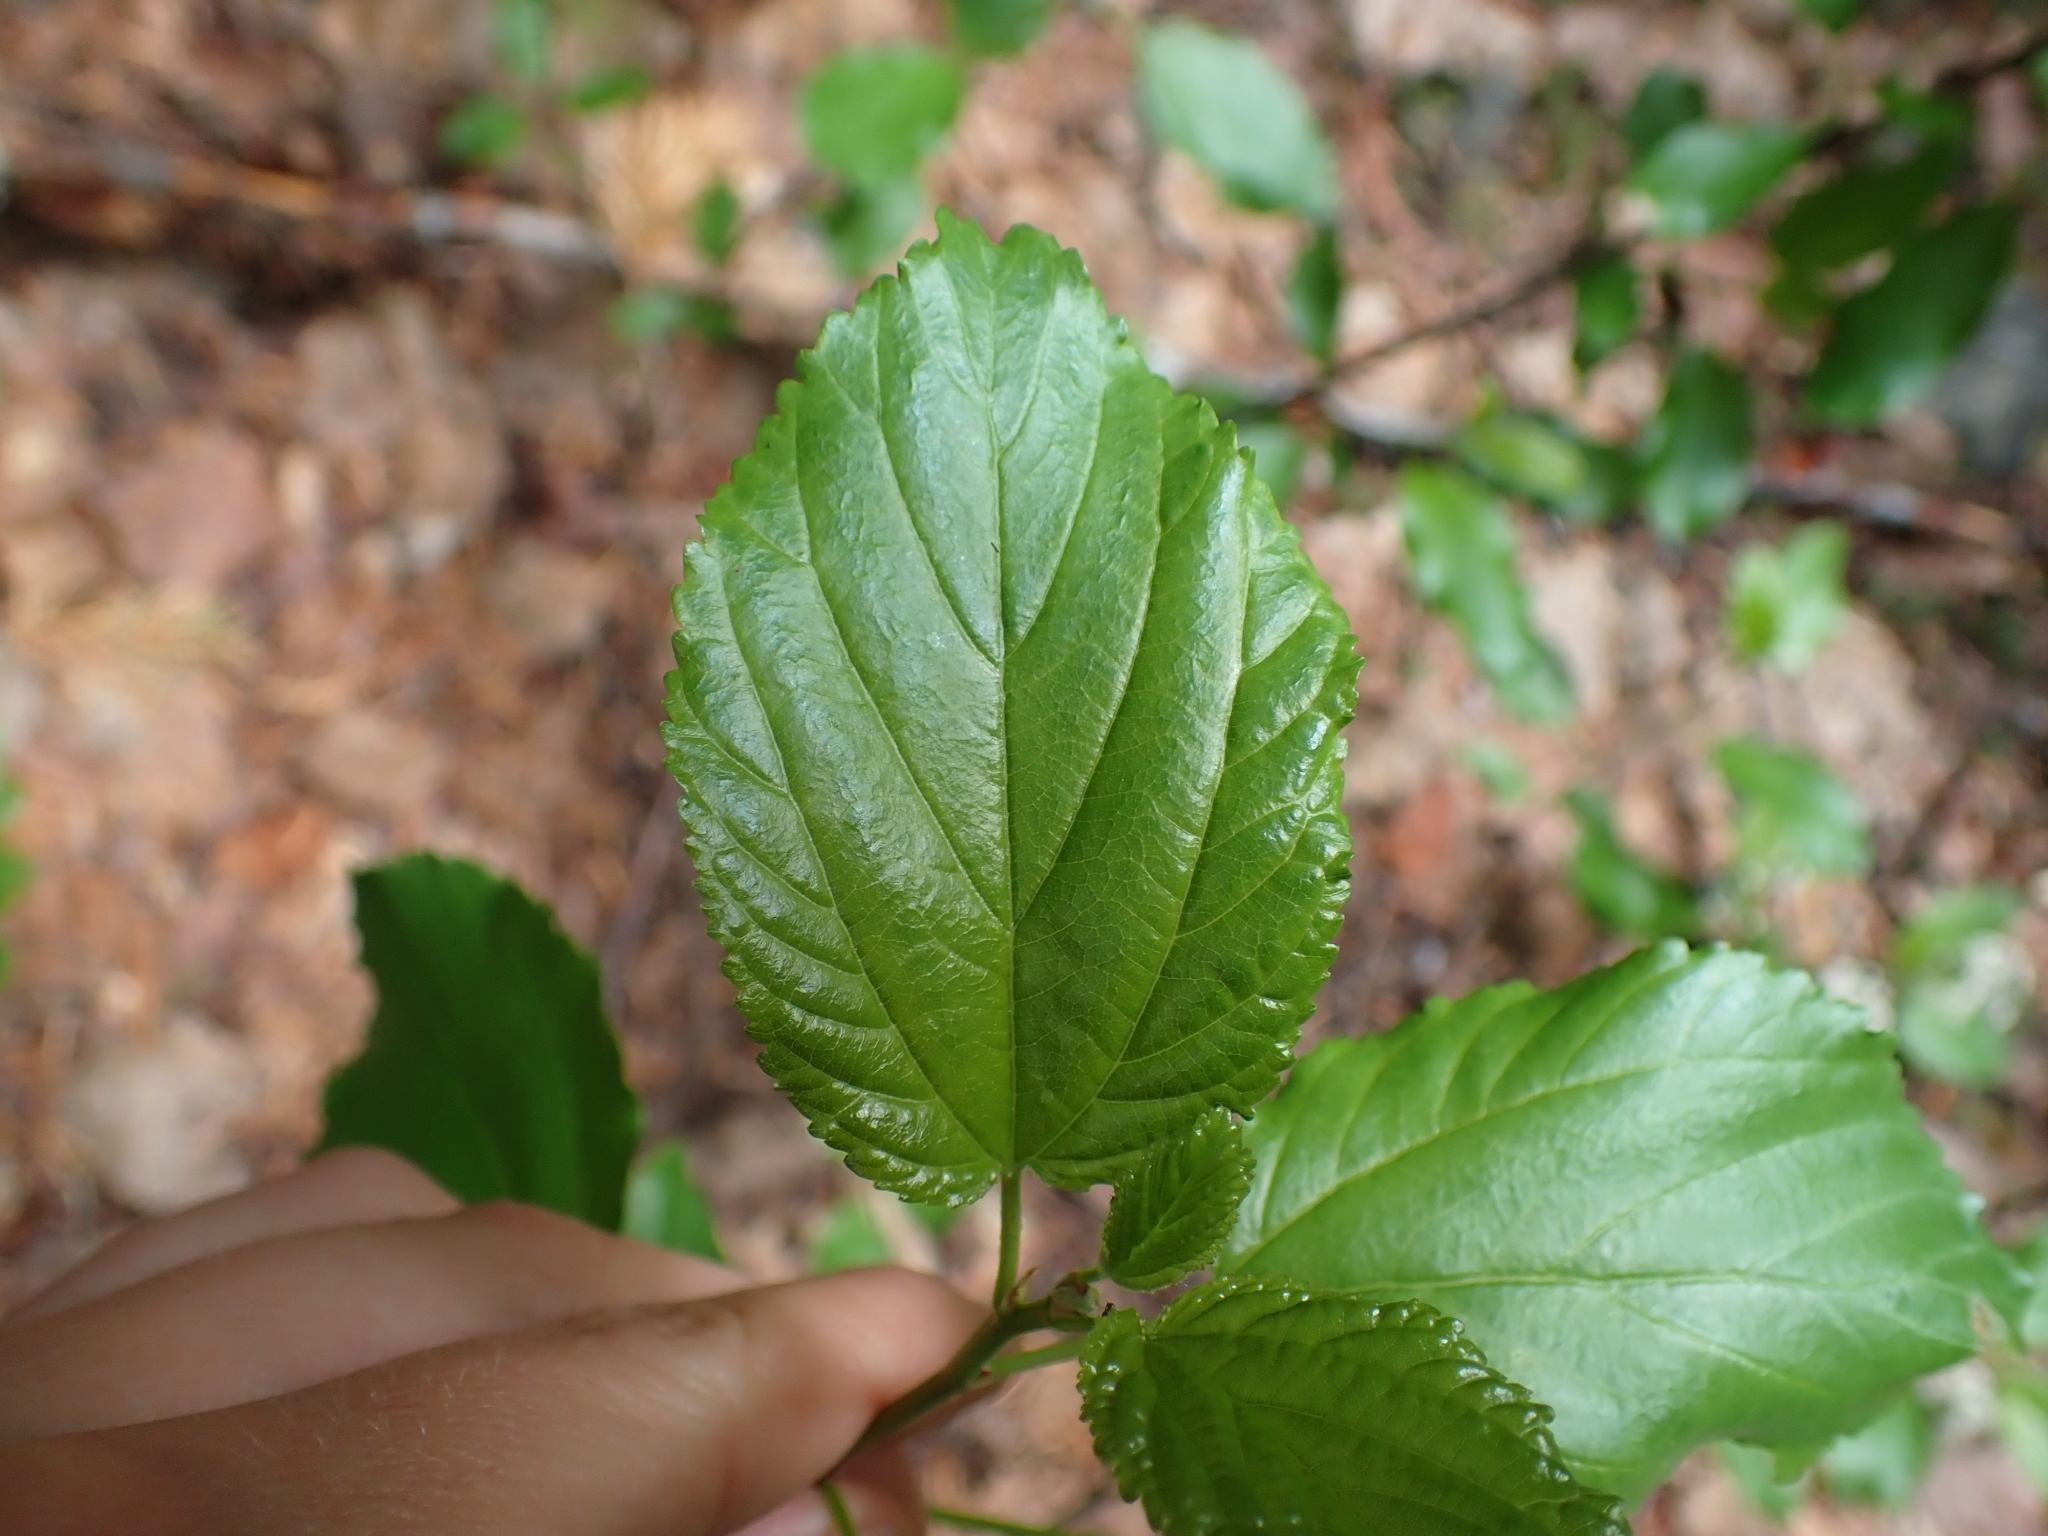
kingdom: Plantae
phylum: Tracheophyta
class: Magnoliopsida
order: Rosales
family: Rhamnaceae
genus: Ceanothus
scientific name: Ceanothus sanguineus
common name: Teatree
